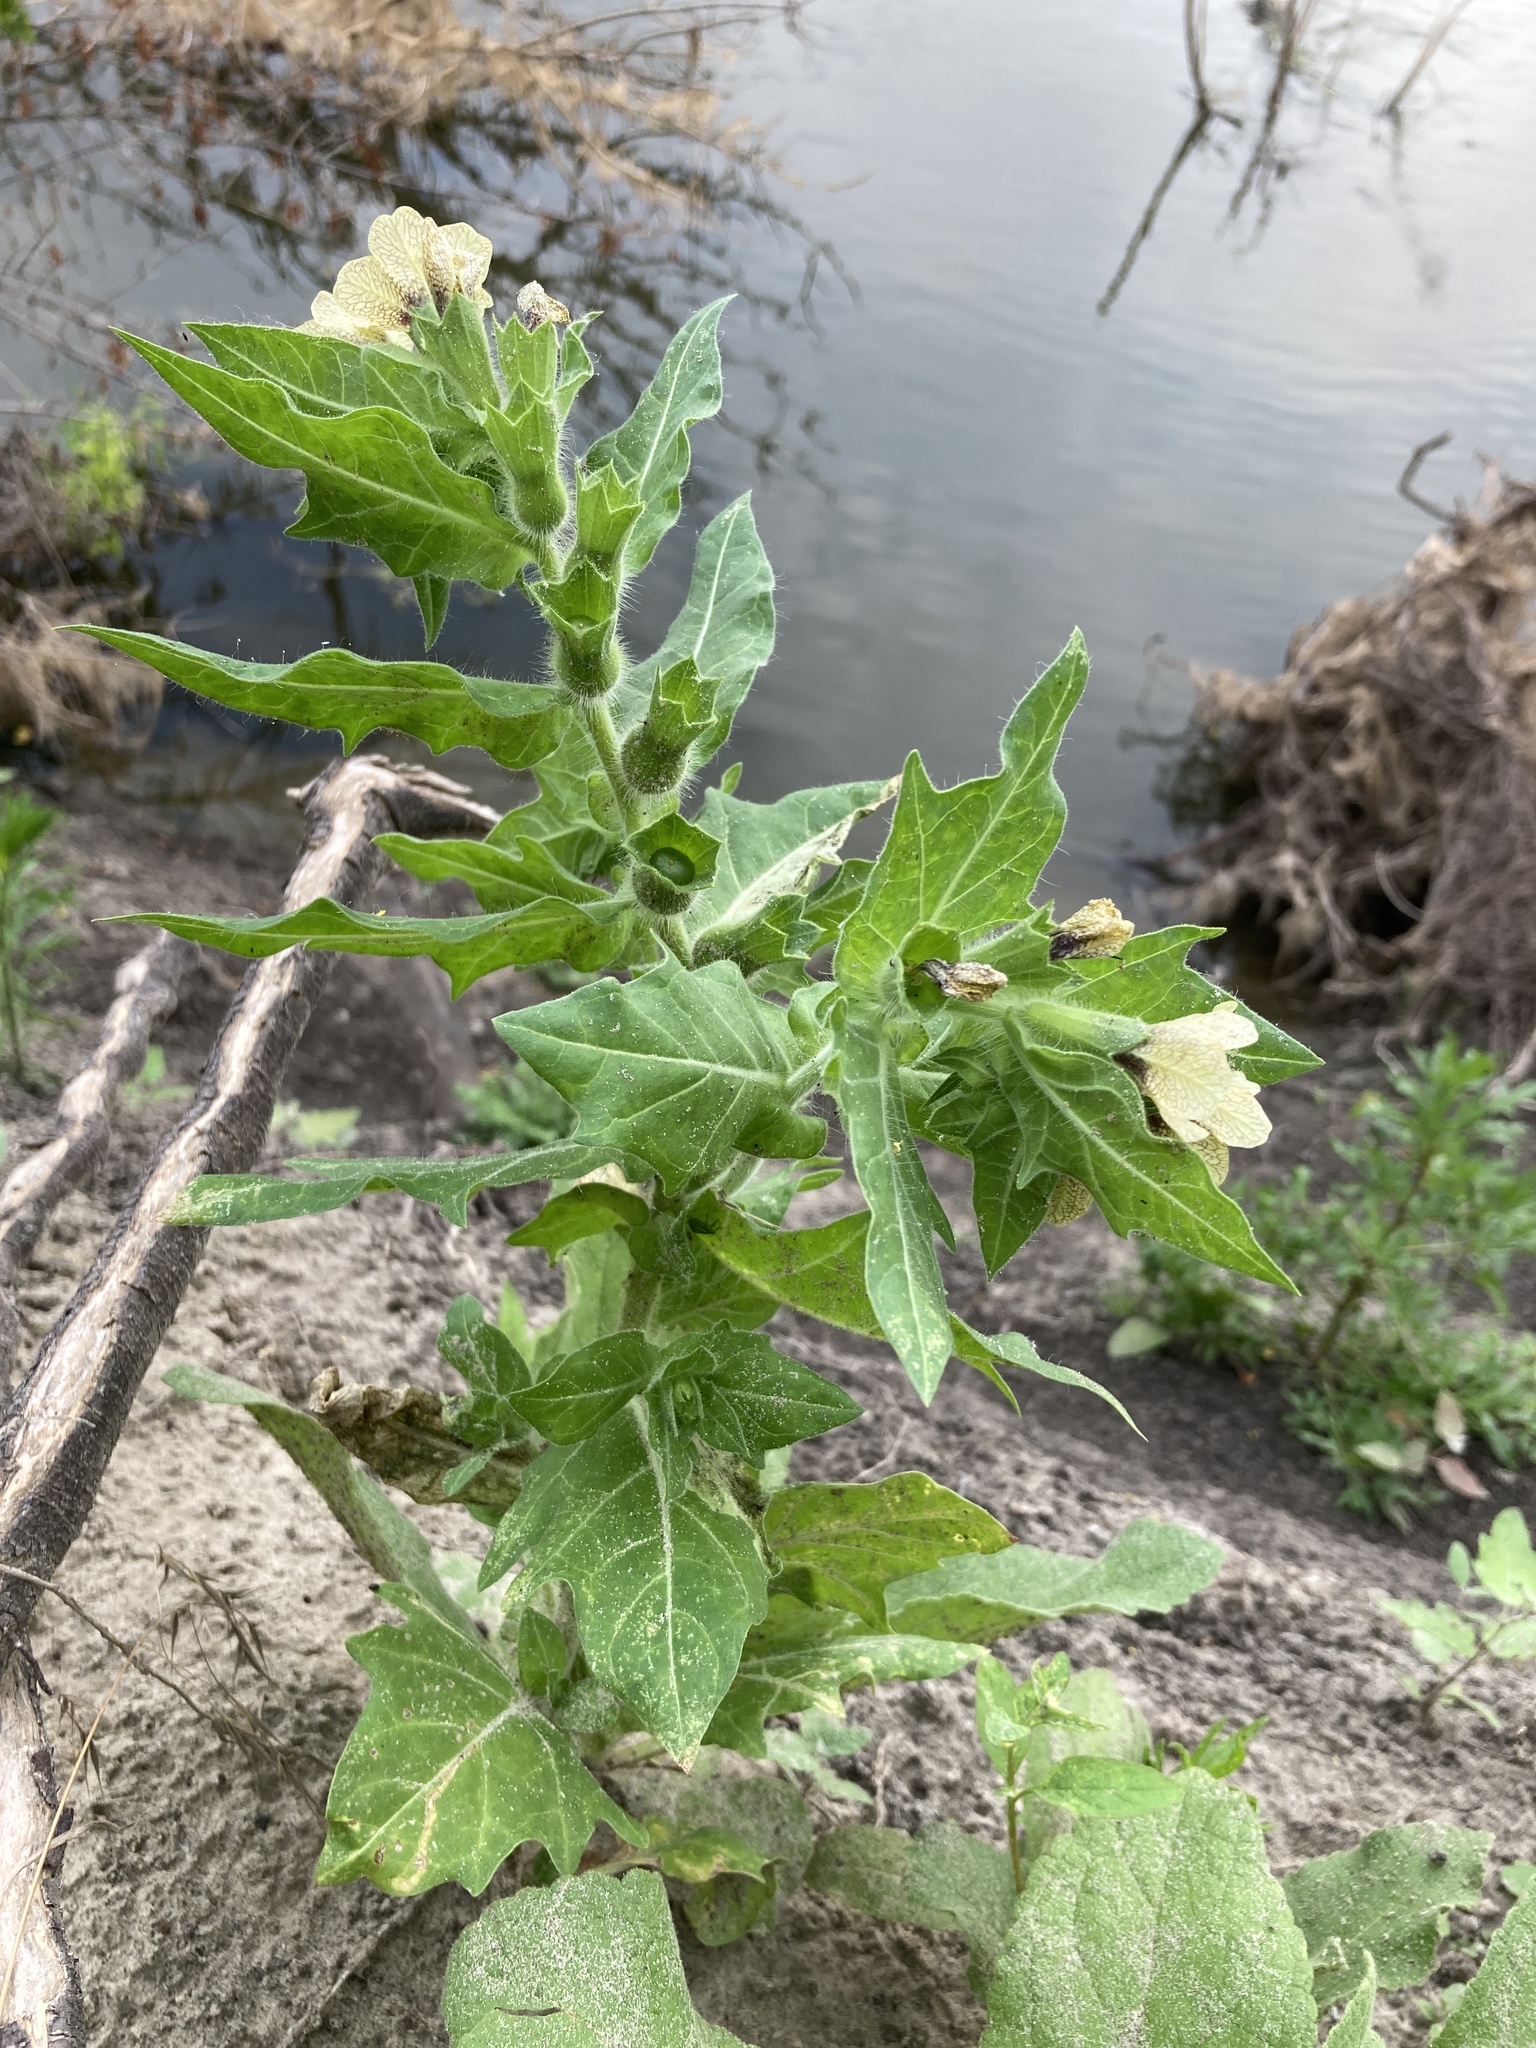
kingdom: Plantae
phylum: Tracheophyta
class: Magnoliopsida
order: Solanales
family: Solanaceae
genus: Hyoscyamus
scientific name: Hyoscyamus niger
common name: Henbane
